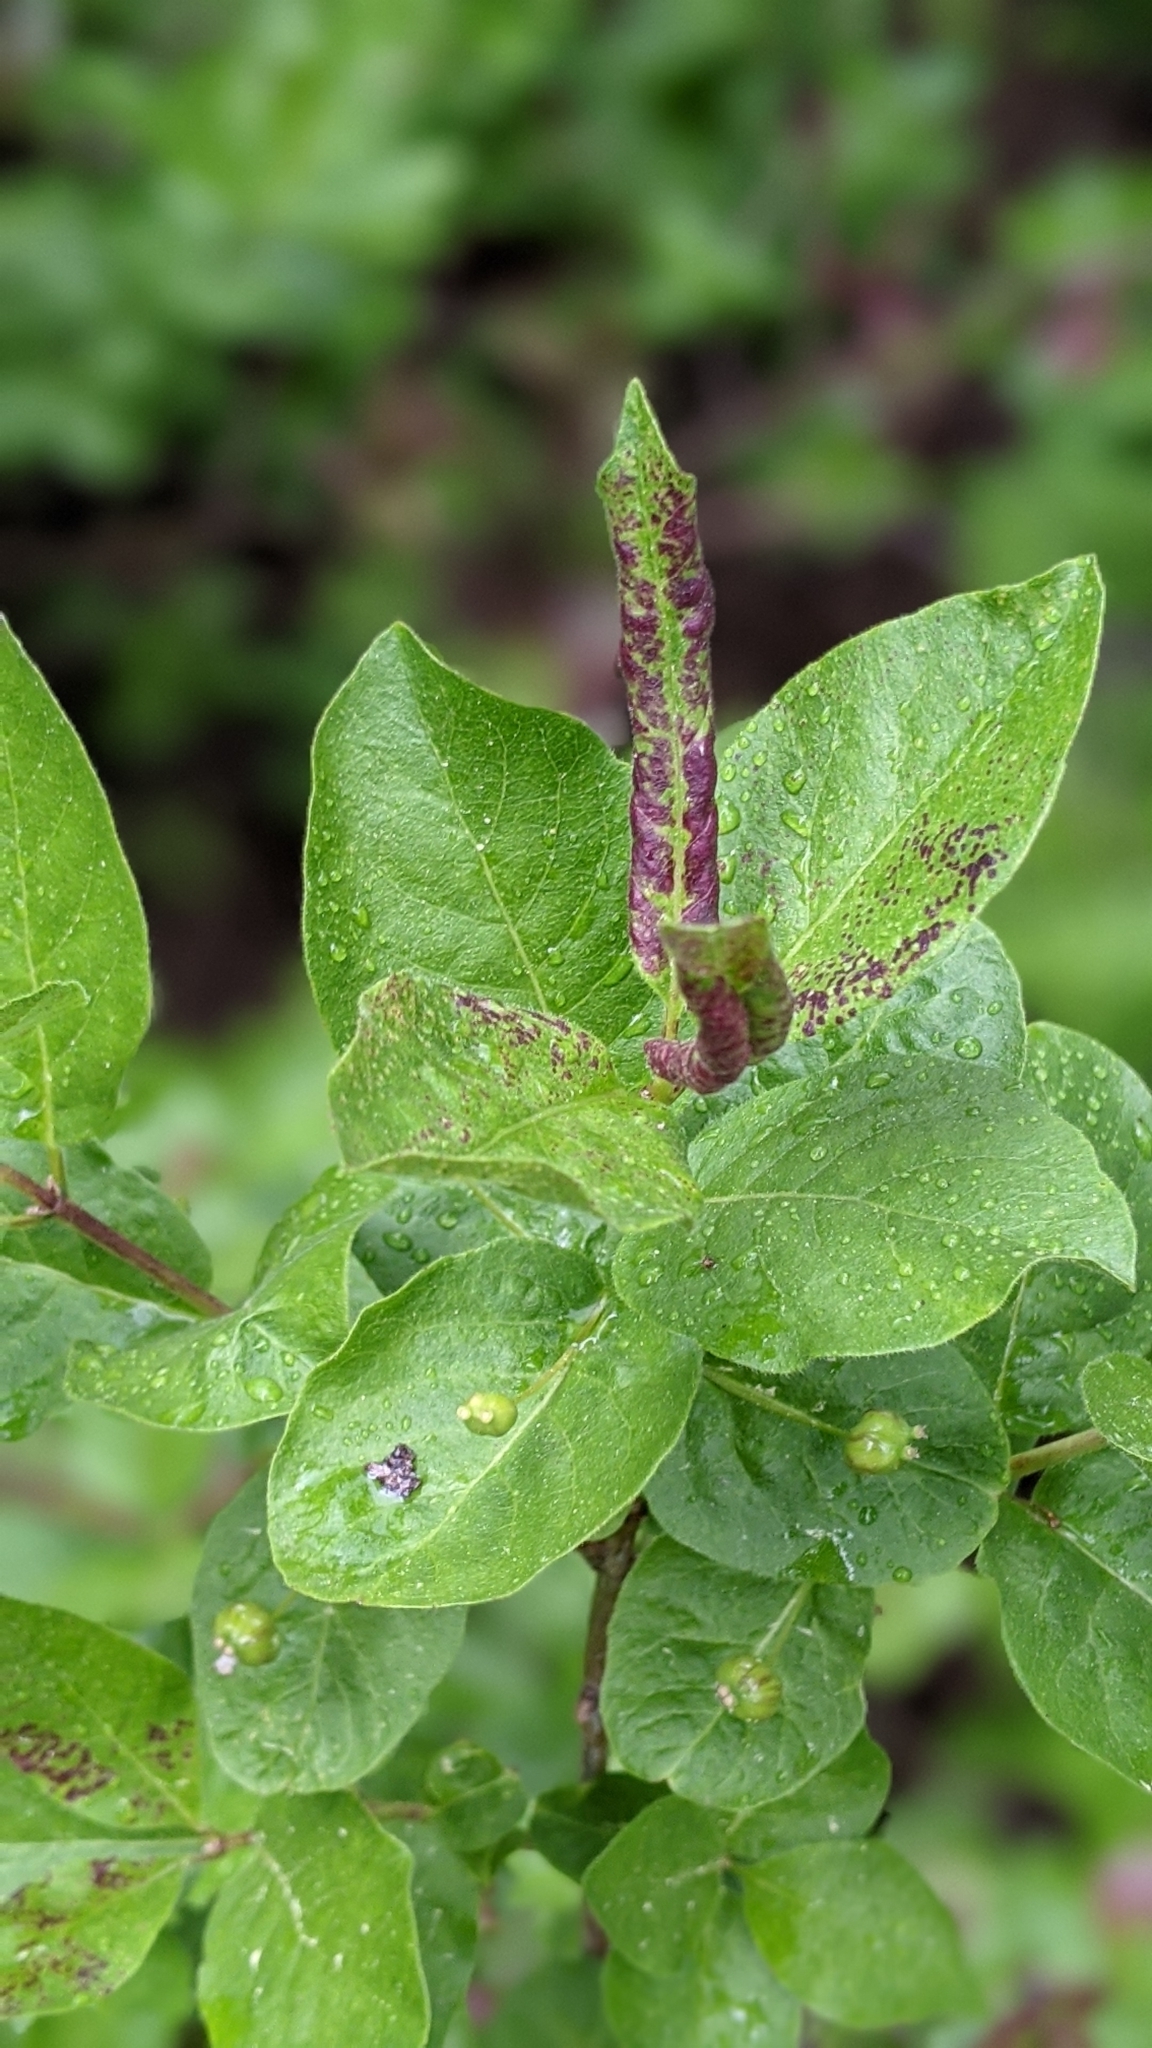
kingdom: Plantae
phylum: Tracheophyta
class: Magnoliopsida
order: Dipsacales
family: Caprifoliaceae
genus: Lonicera
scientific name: Lonicera conjugialis
